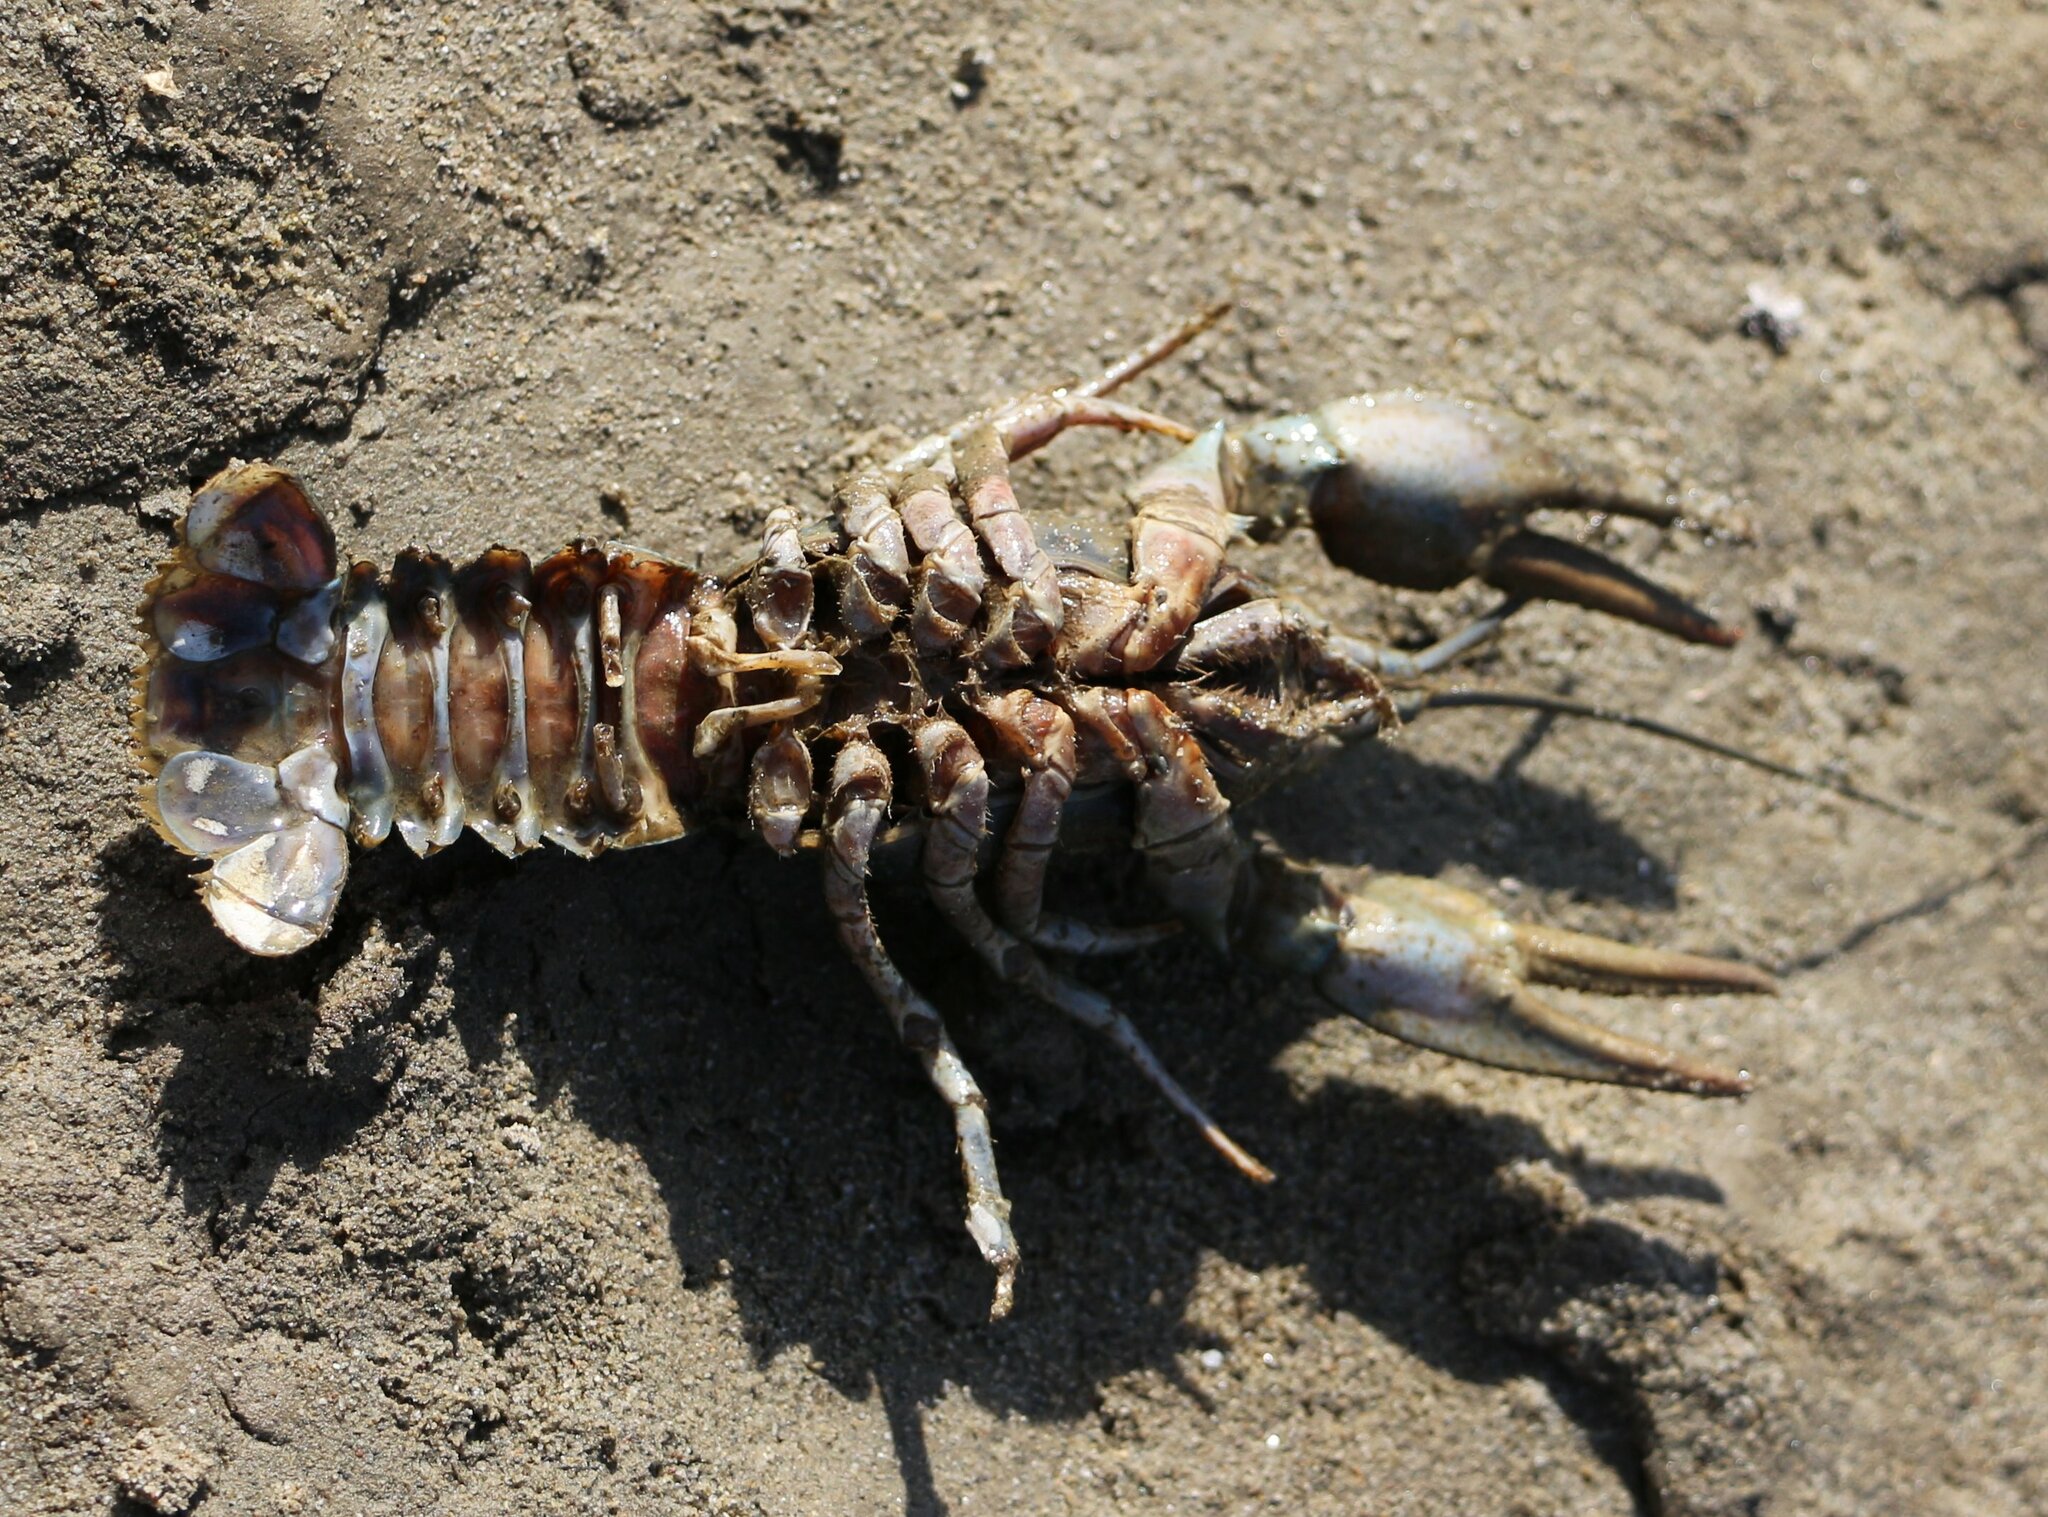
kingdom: Animalia
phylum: Arthropoda
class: Malacostraca
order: Decapoda
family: Astacidae
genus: Pontastacus
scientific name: Pontastacus leptodactylus
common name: Danube crayfish
